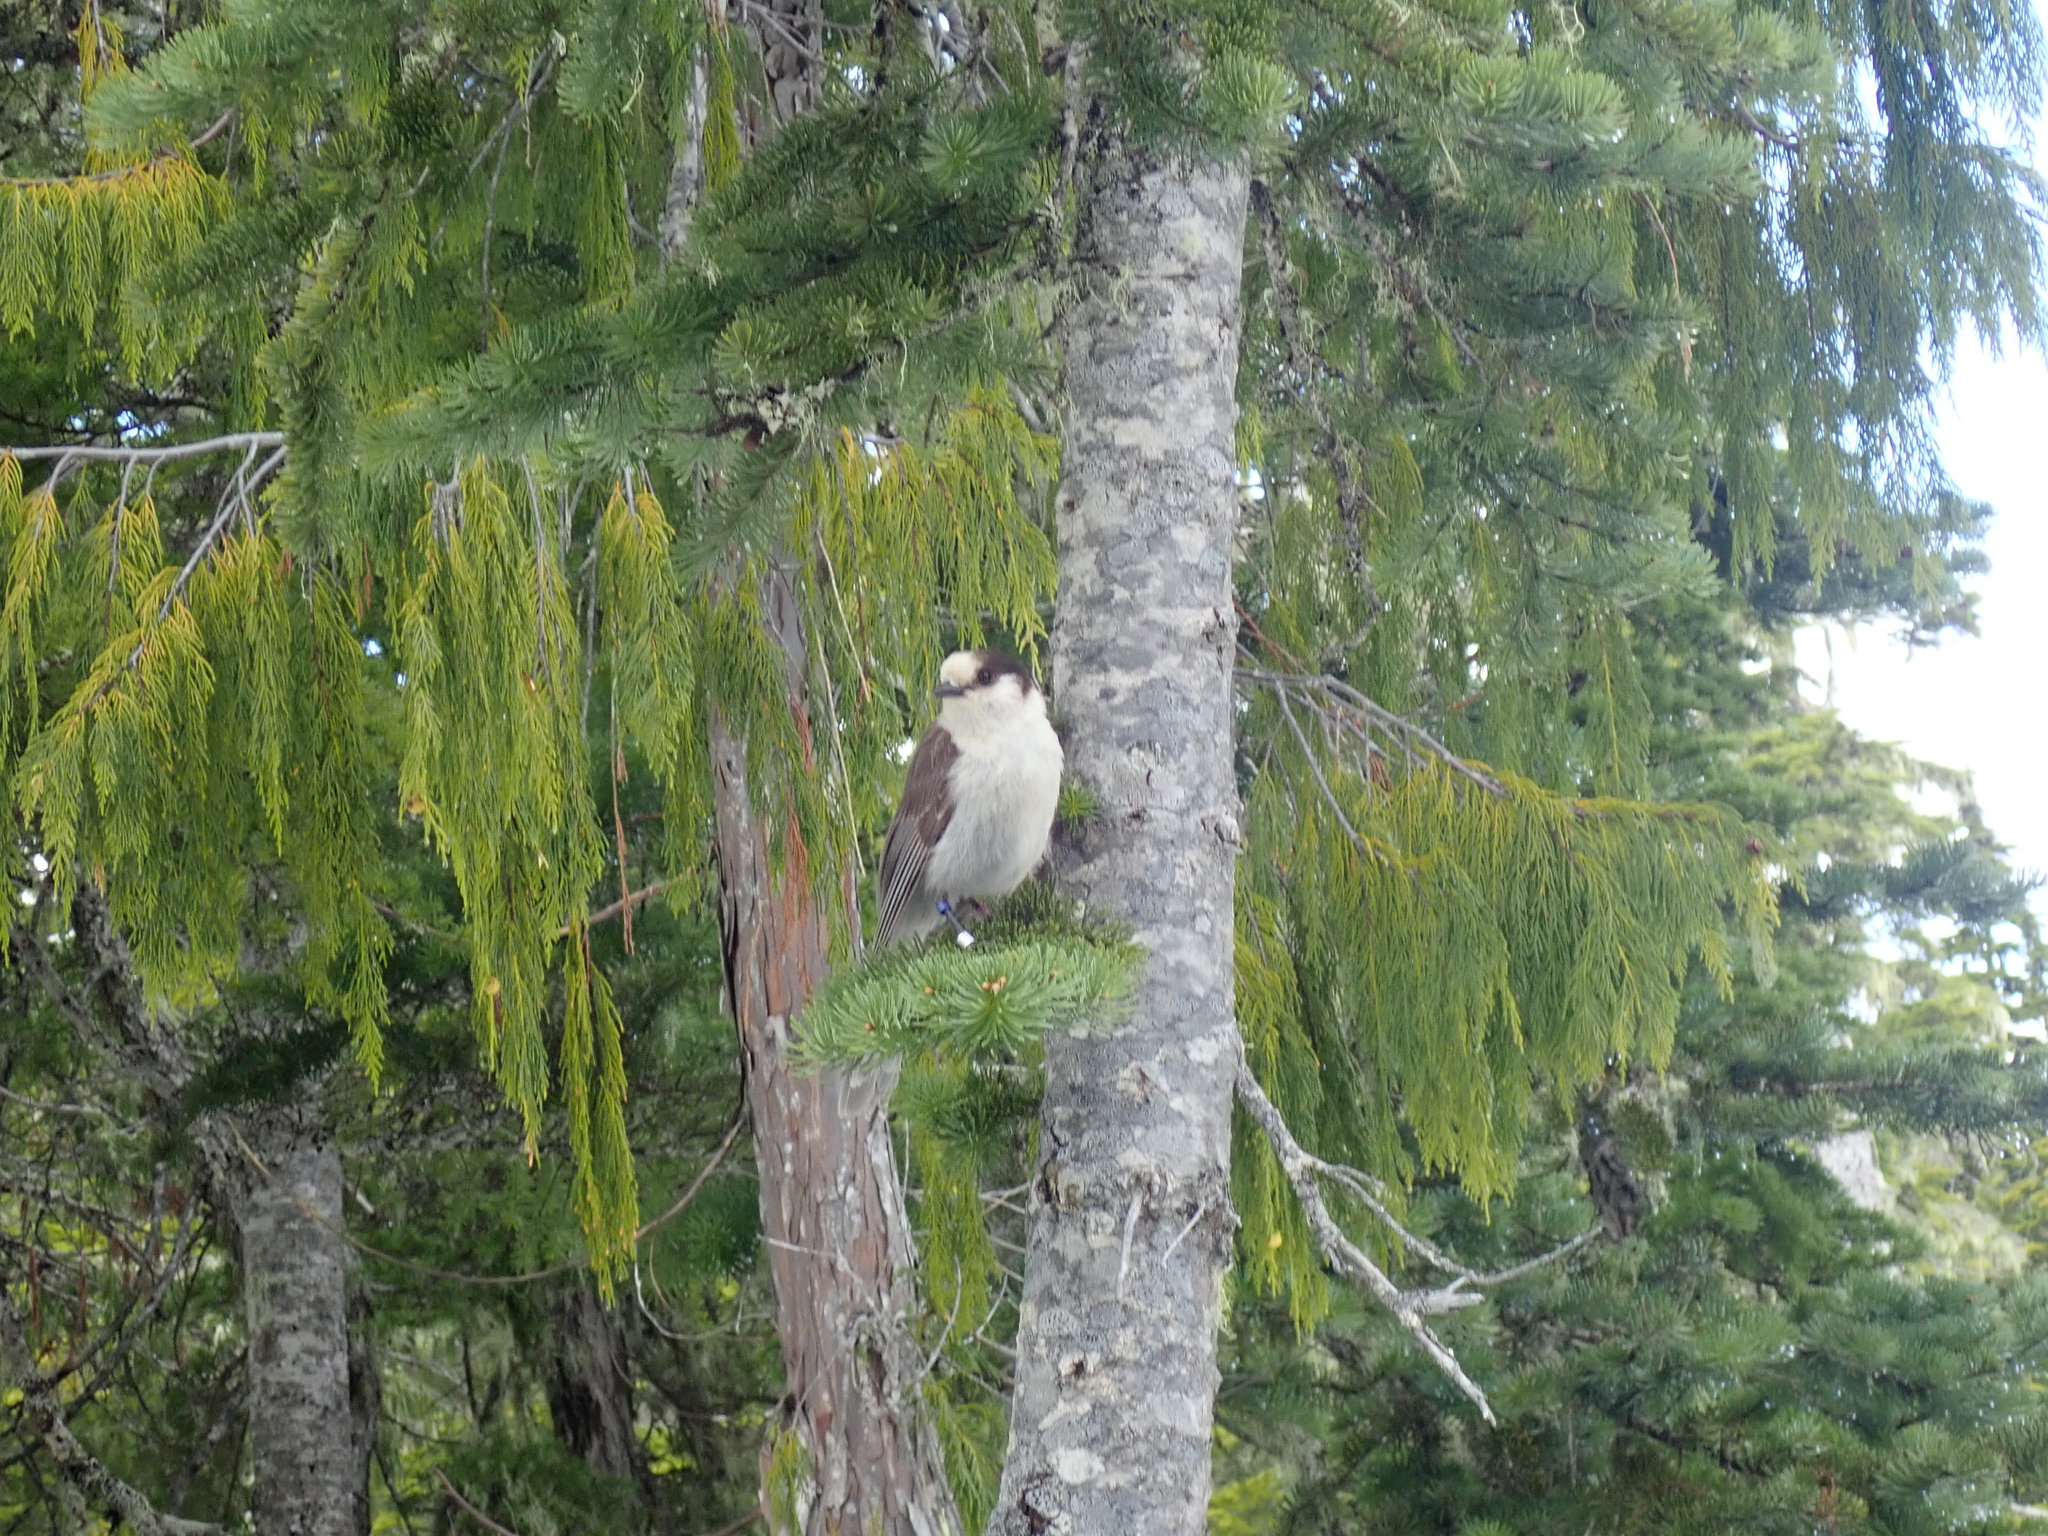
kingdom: Animalia
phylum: Chordata
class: Aves
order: Passeriformes
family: Corvidae
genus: Perisoreus
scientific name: Perisoreus canadensis
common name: Gray jay
